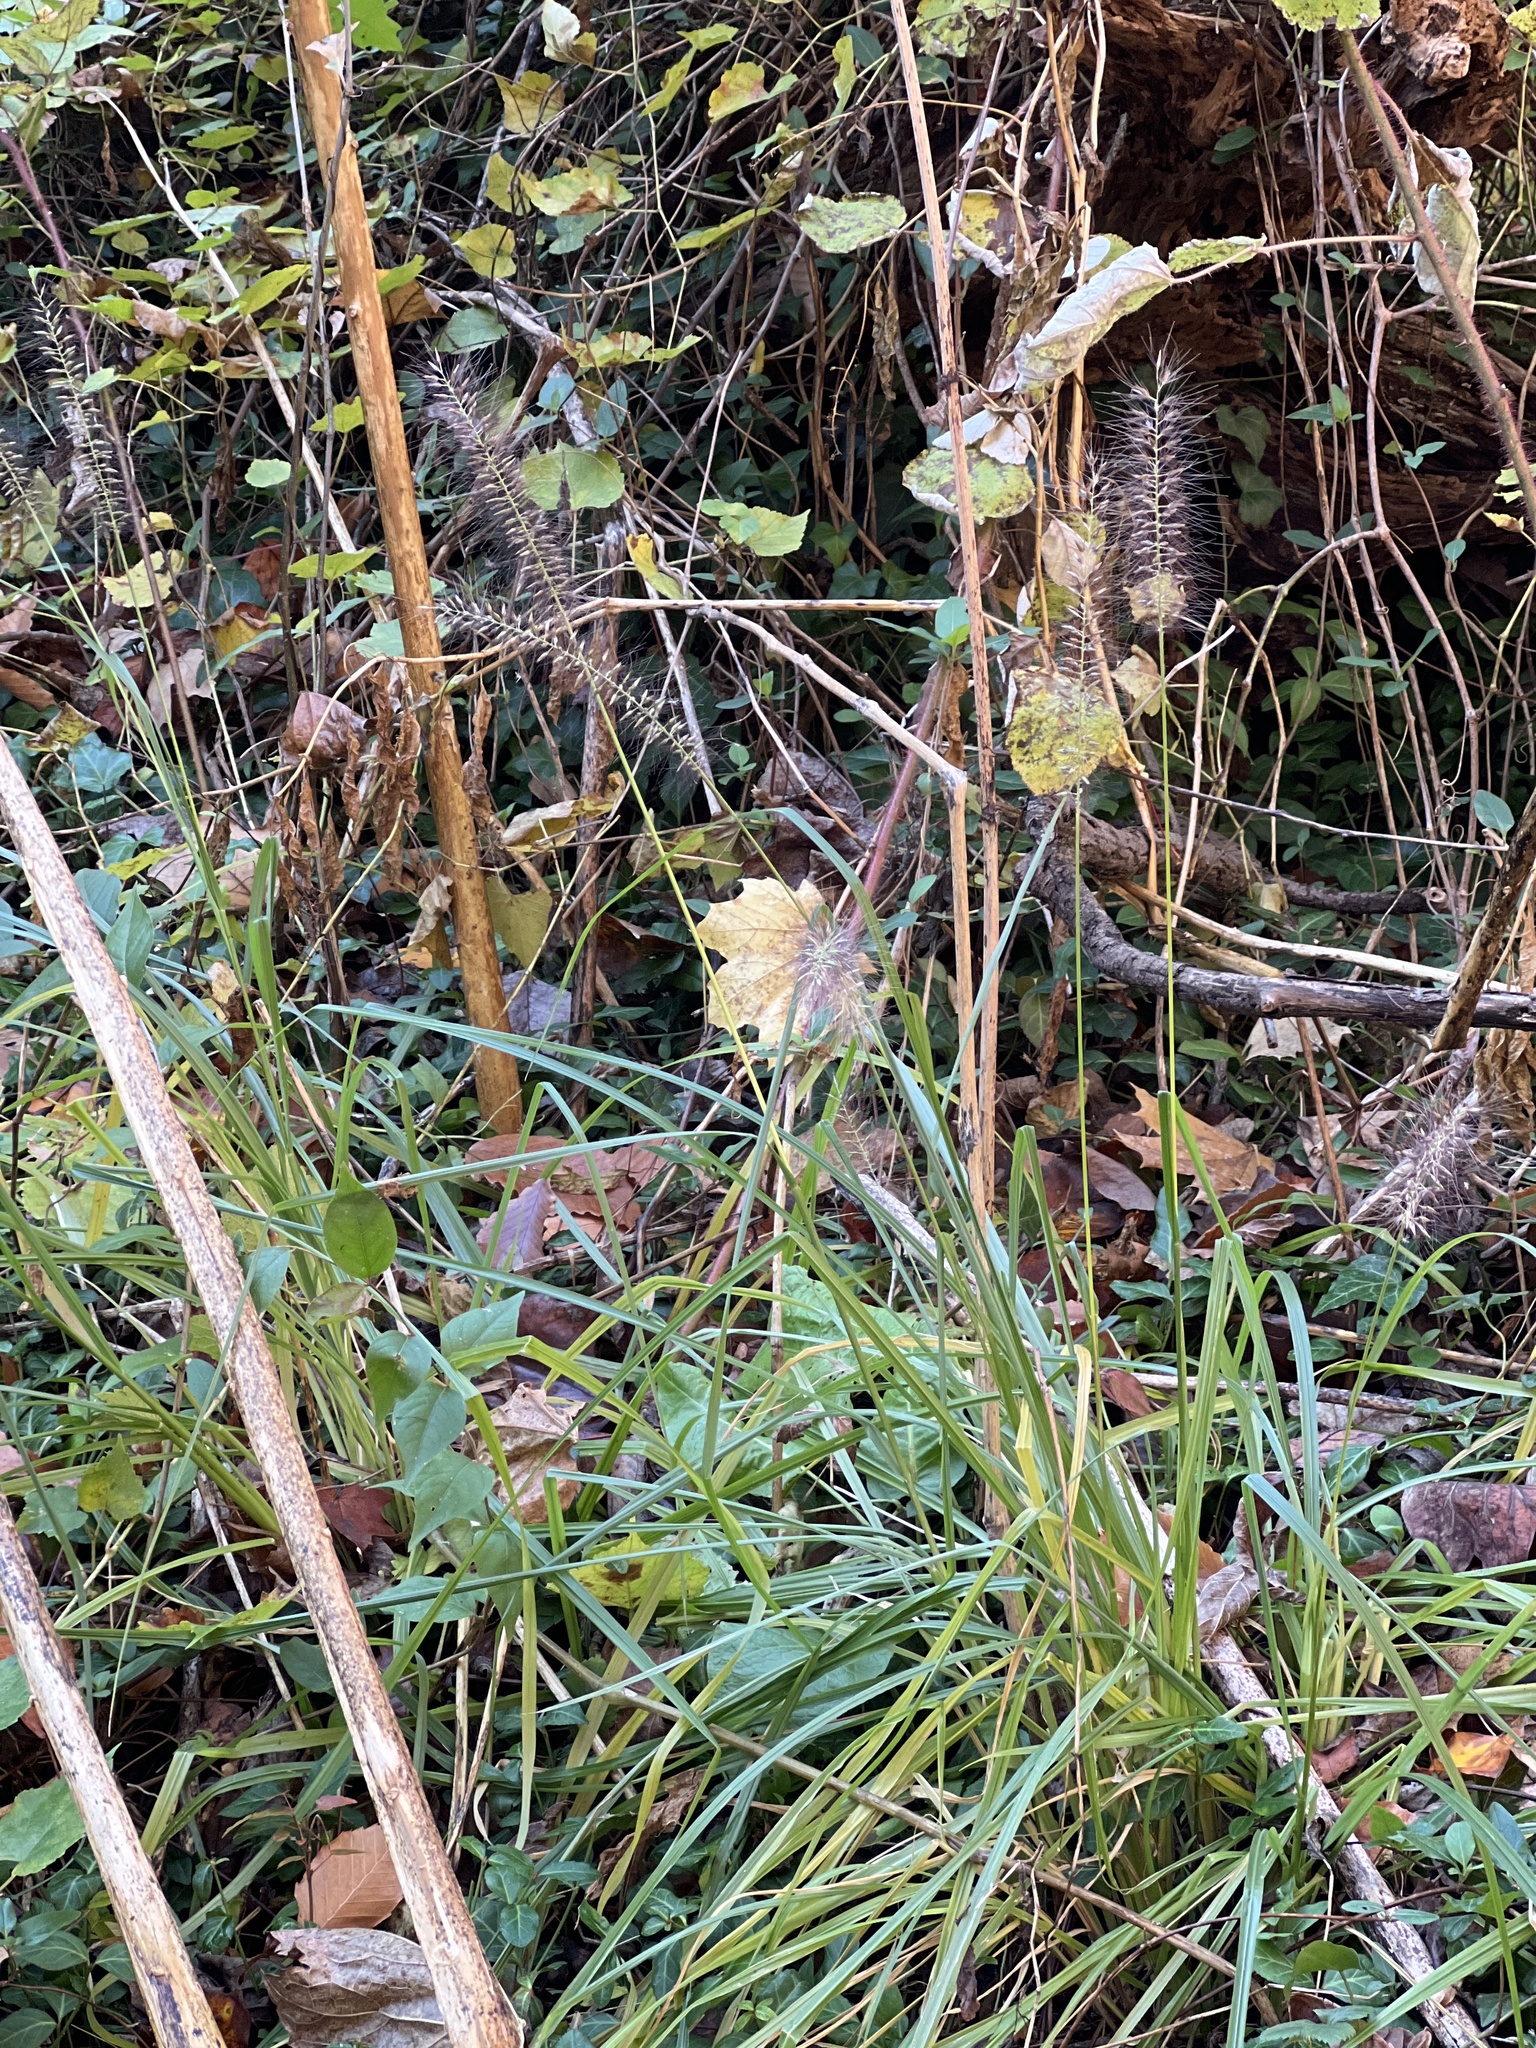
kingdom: Plantae
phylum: Tracheophyta
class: Liliopsida
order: Poales
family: Poaceae
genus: Cenchrus
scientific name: Cenchrus alopecuroides
